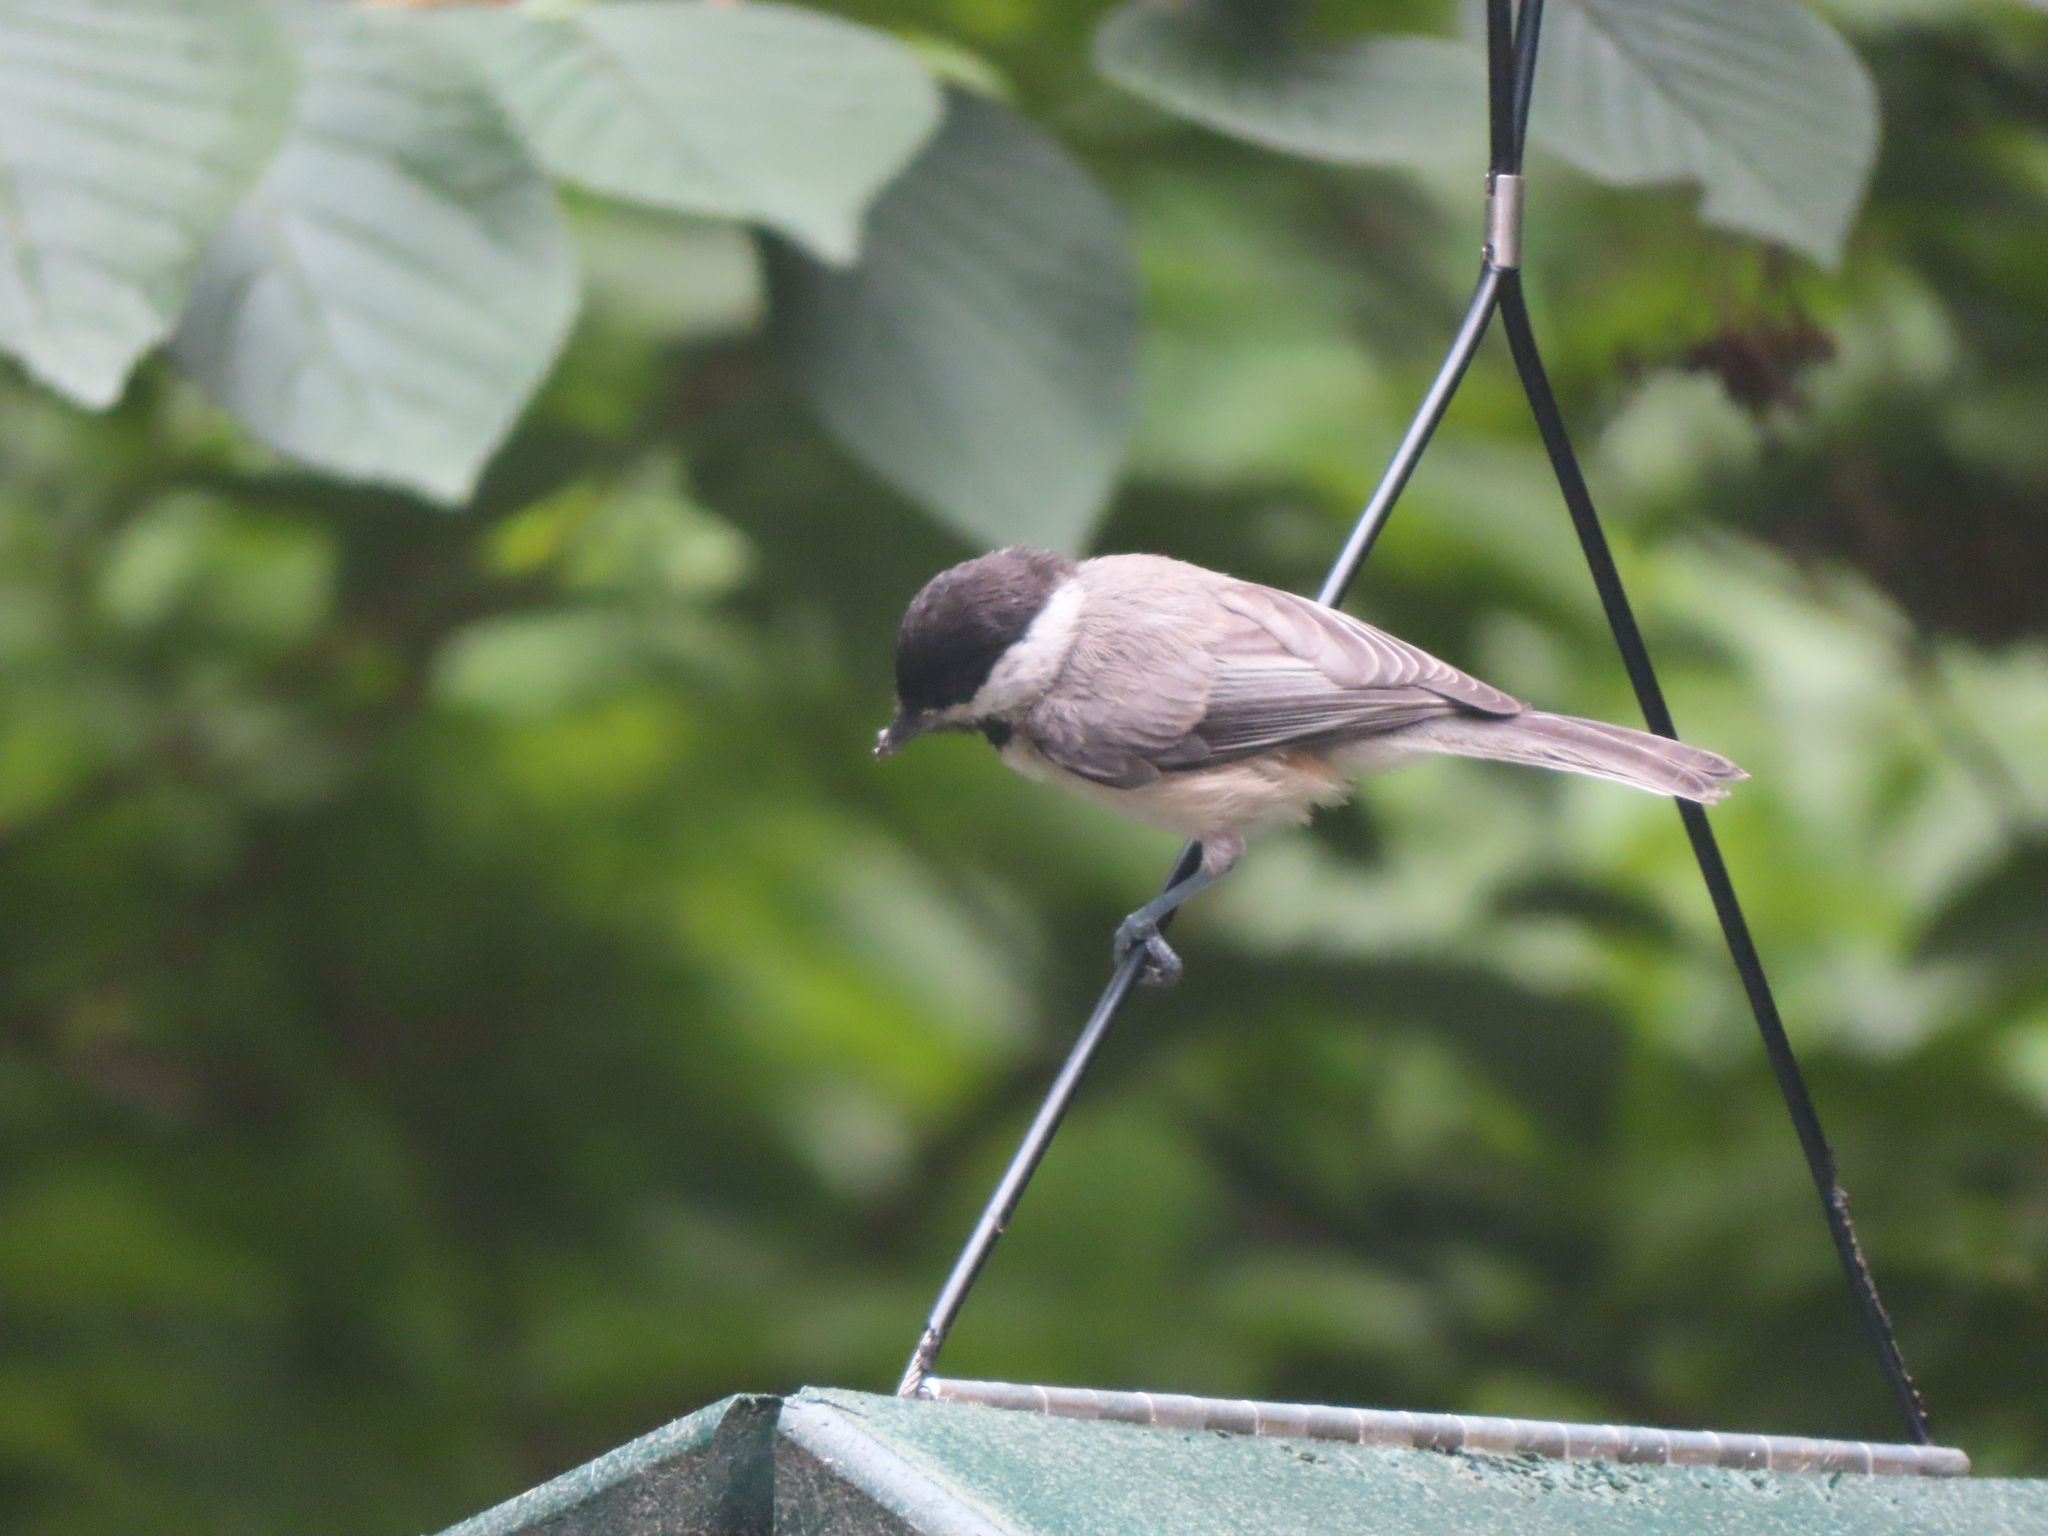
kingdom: Animalia
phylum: Chordata
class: Aves
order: Passeriformes
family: Paridae
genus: Poecile
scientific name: Poecile carolinensis
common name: Carolina chickadee
